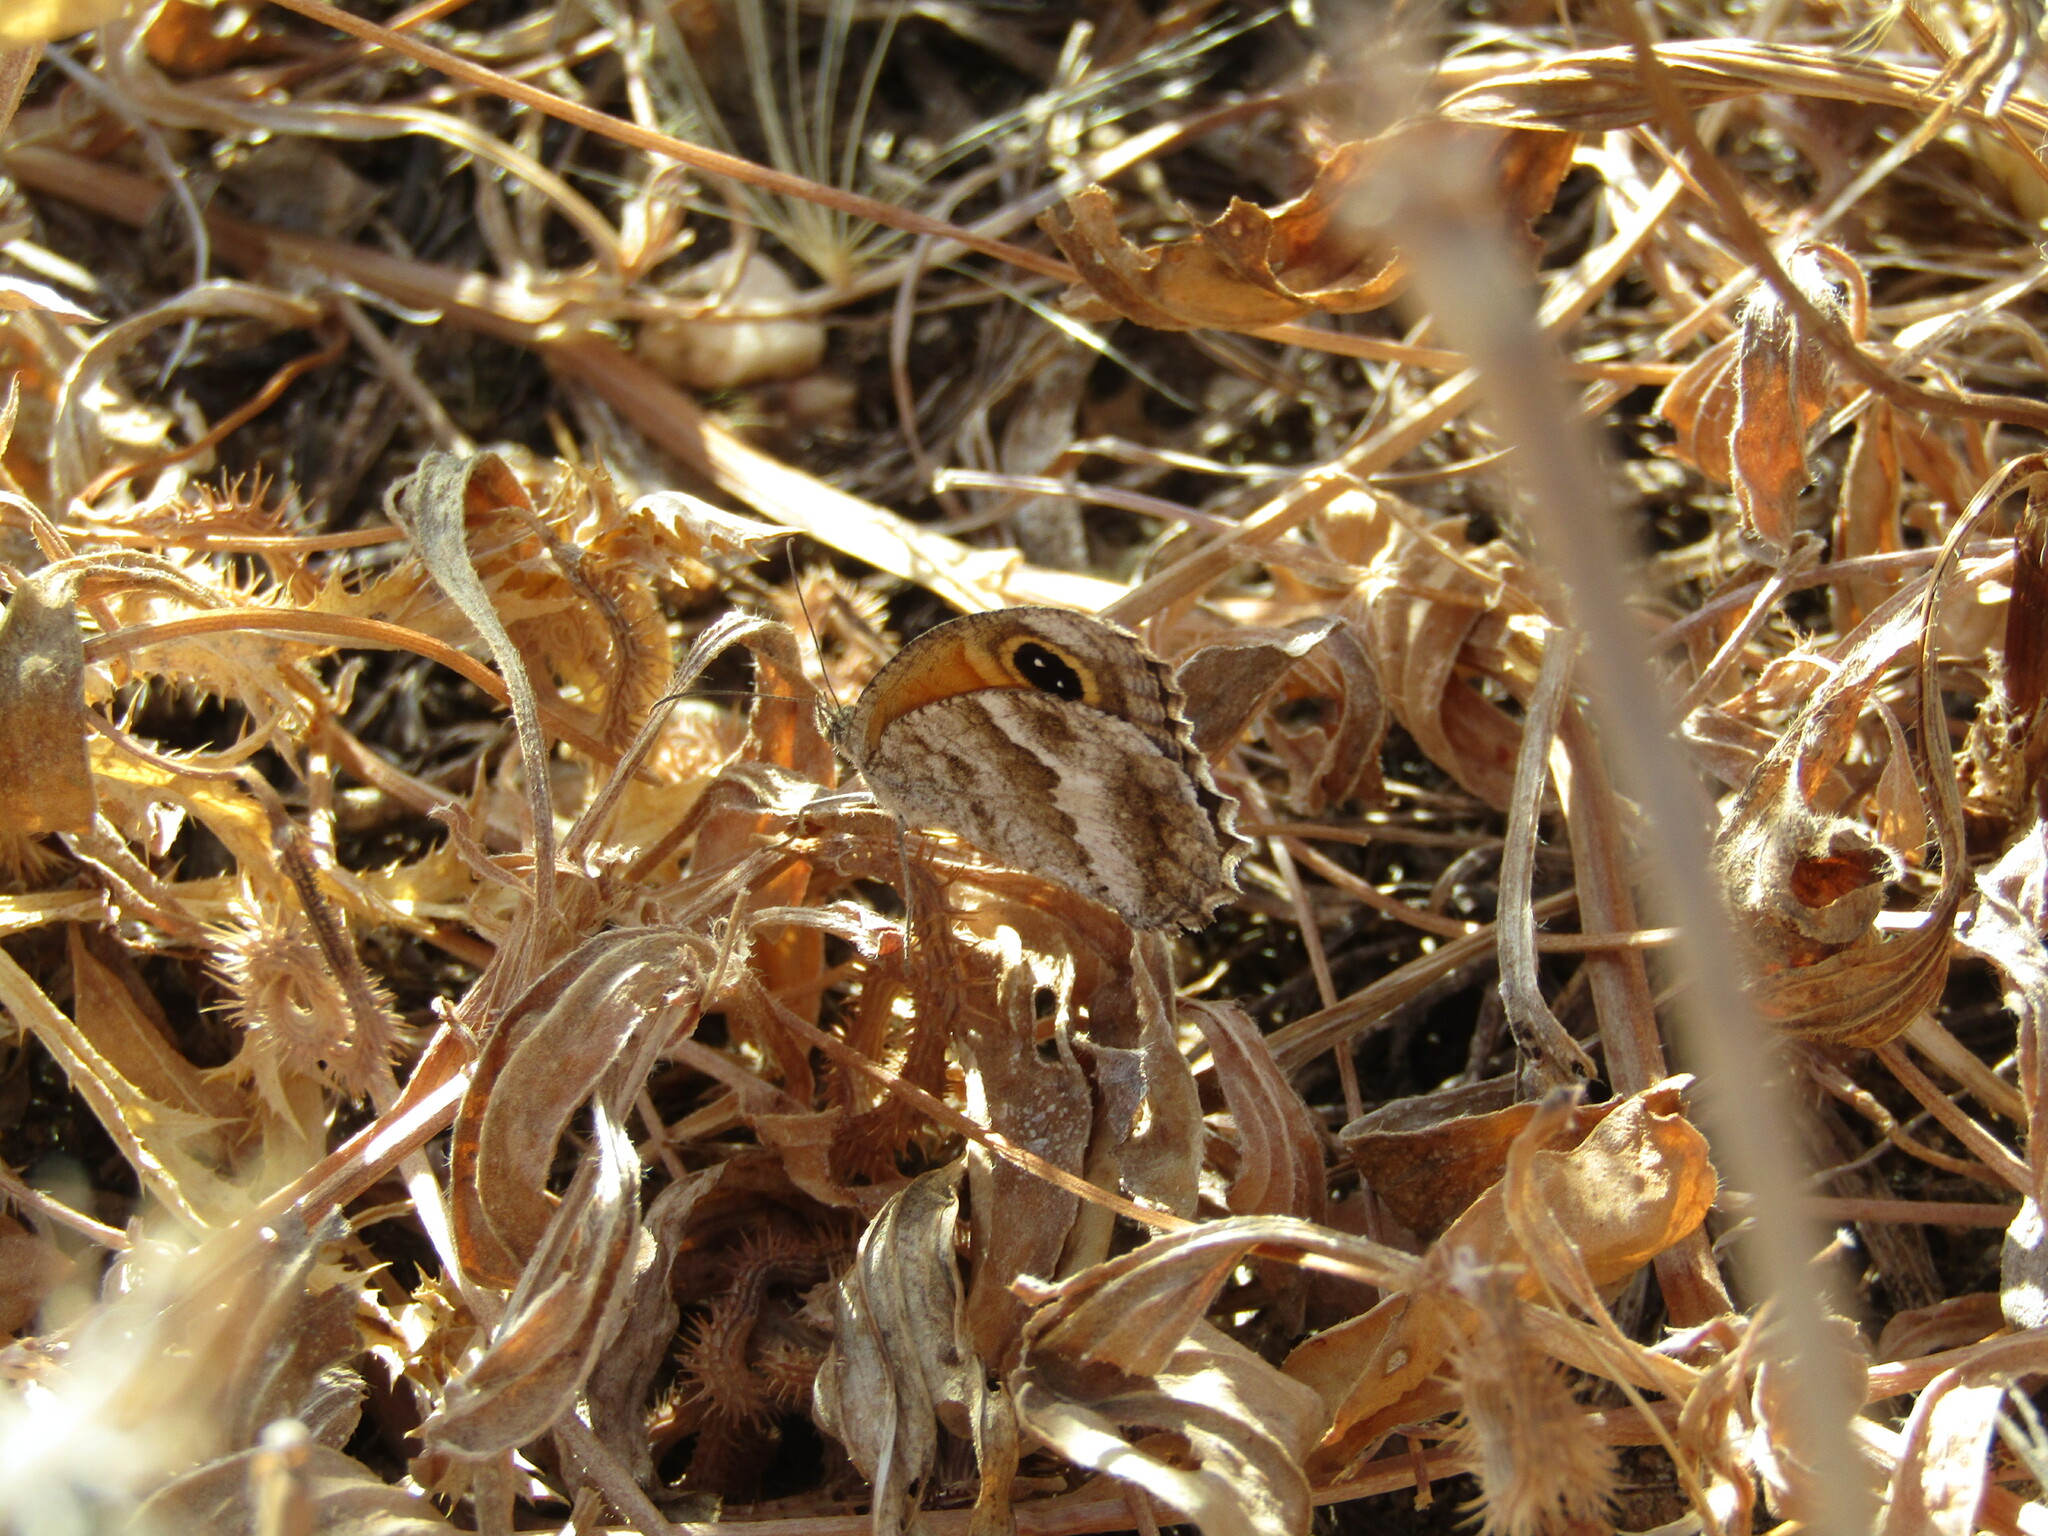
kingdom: Animalia
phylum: Arthropoda
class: Insecta
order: Lepidoptera
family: Nymphalidae
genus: Pyronia
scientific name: Pyronia cecilia
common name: Southern gatekeeper
